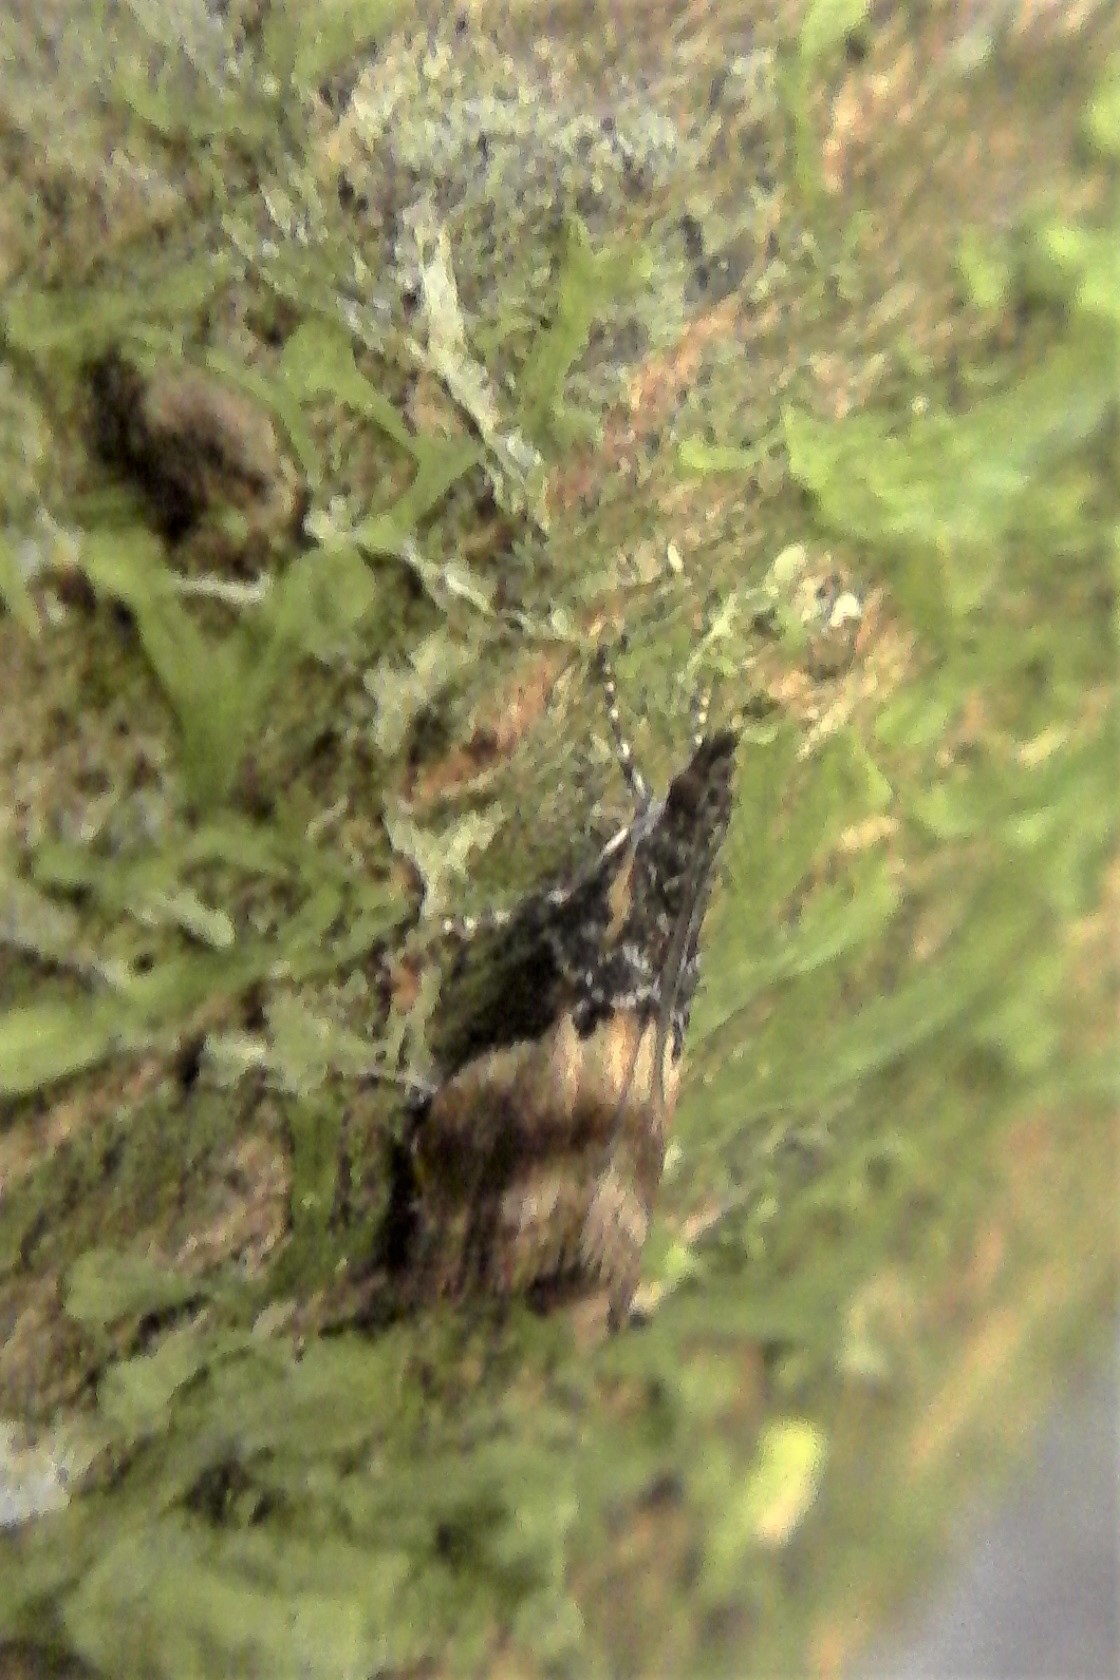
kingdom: Animalia
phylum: Arthropoda
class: Insecta
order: Lepidoptera
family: Crambidae
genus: Eudonia
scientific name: Eudonia chlamydota
